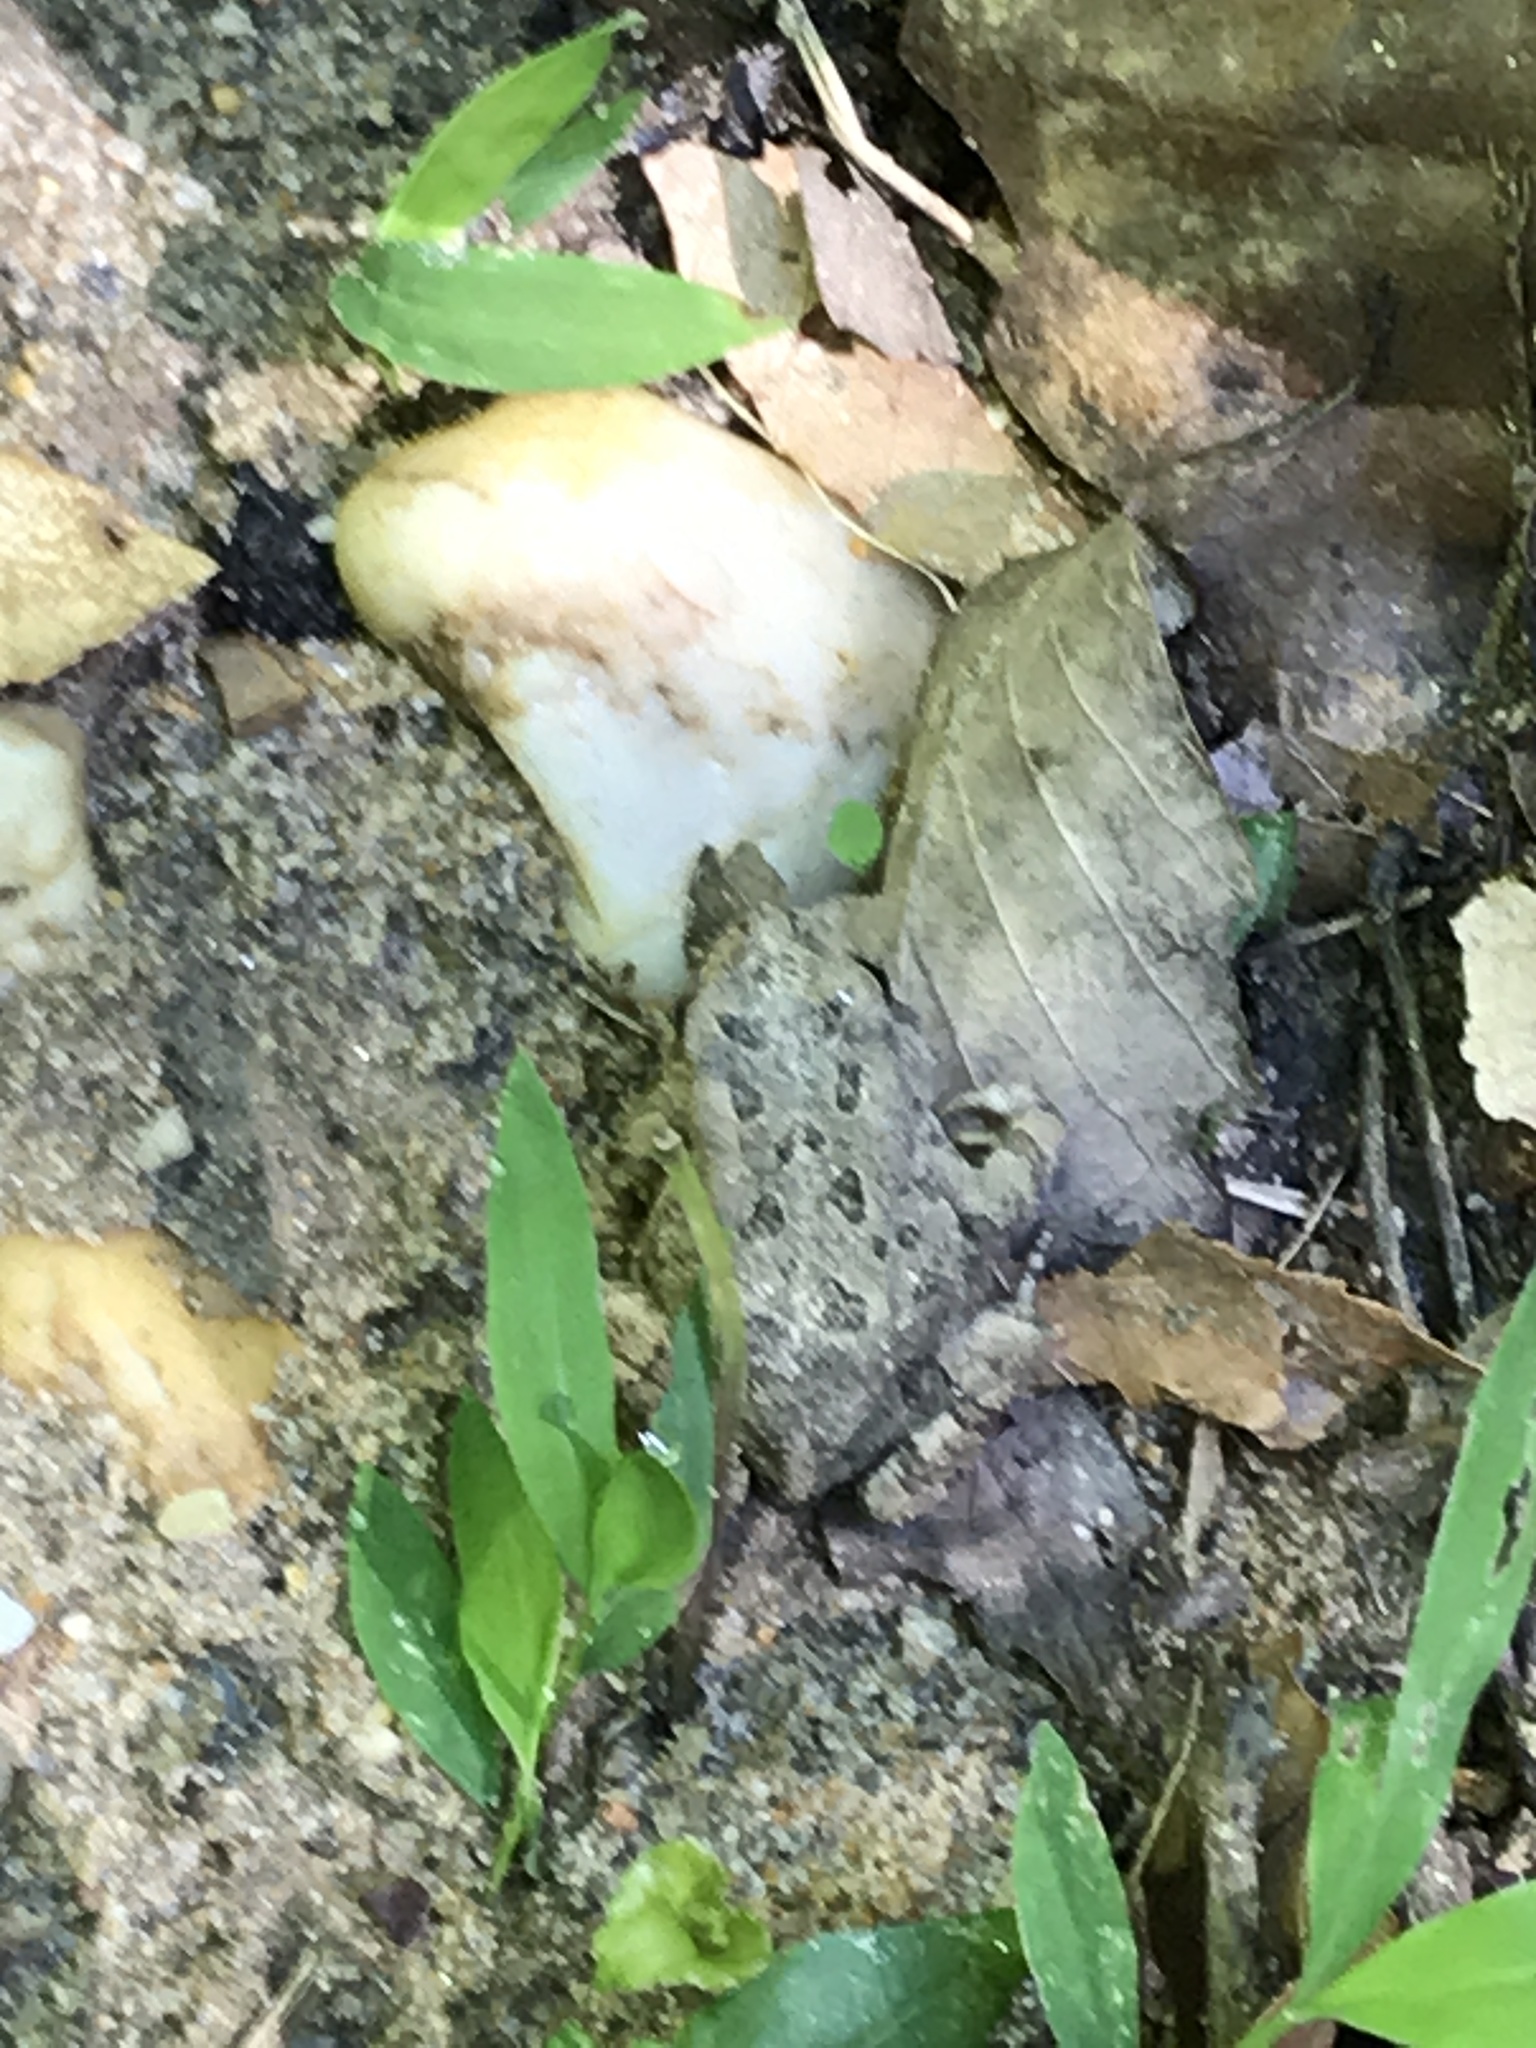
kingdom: Animalia
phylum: Chordata
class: Amphibia
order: Anura
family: Bufonidae
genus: Anaxyrus
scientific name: Anaxyrus americanus
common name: American toad
